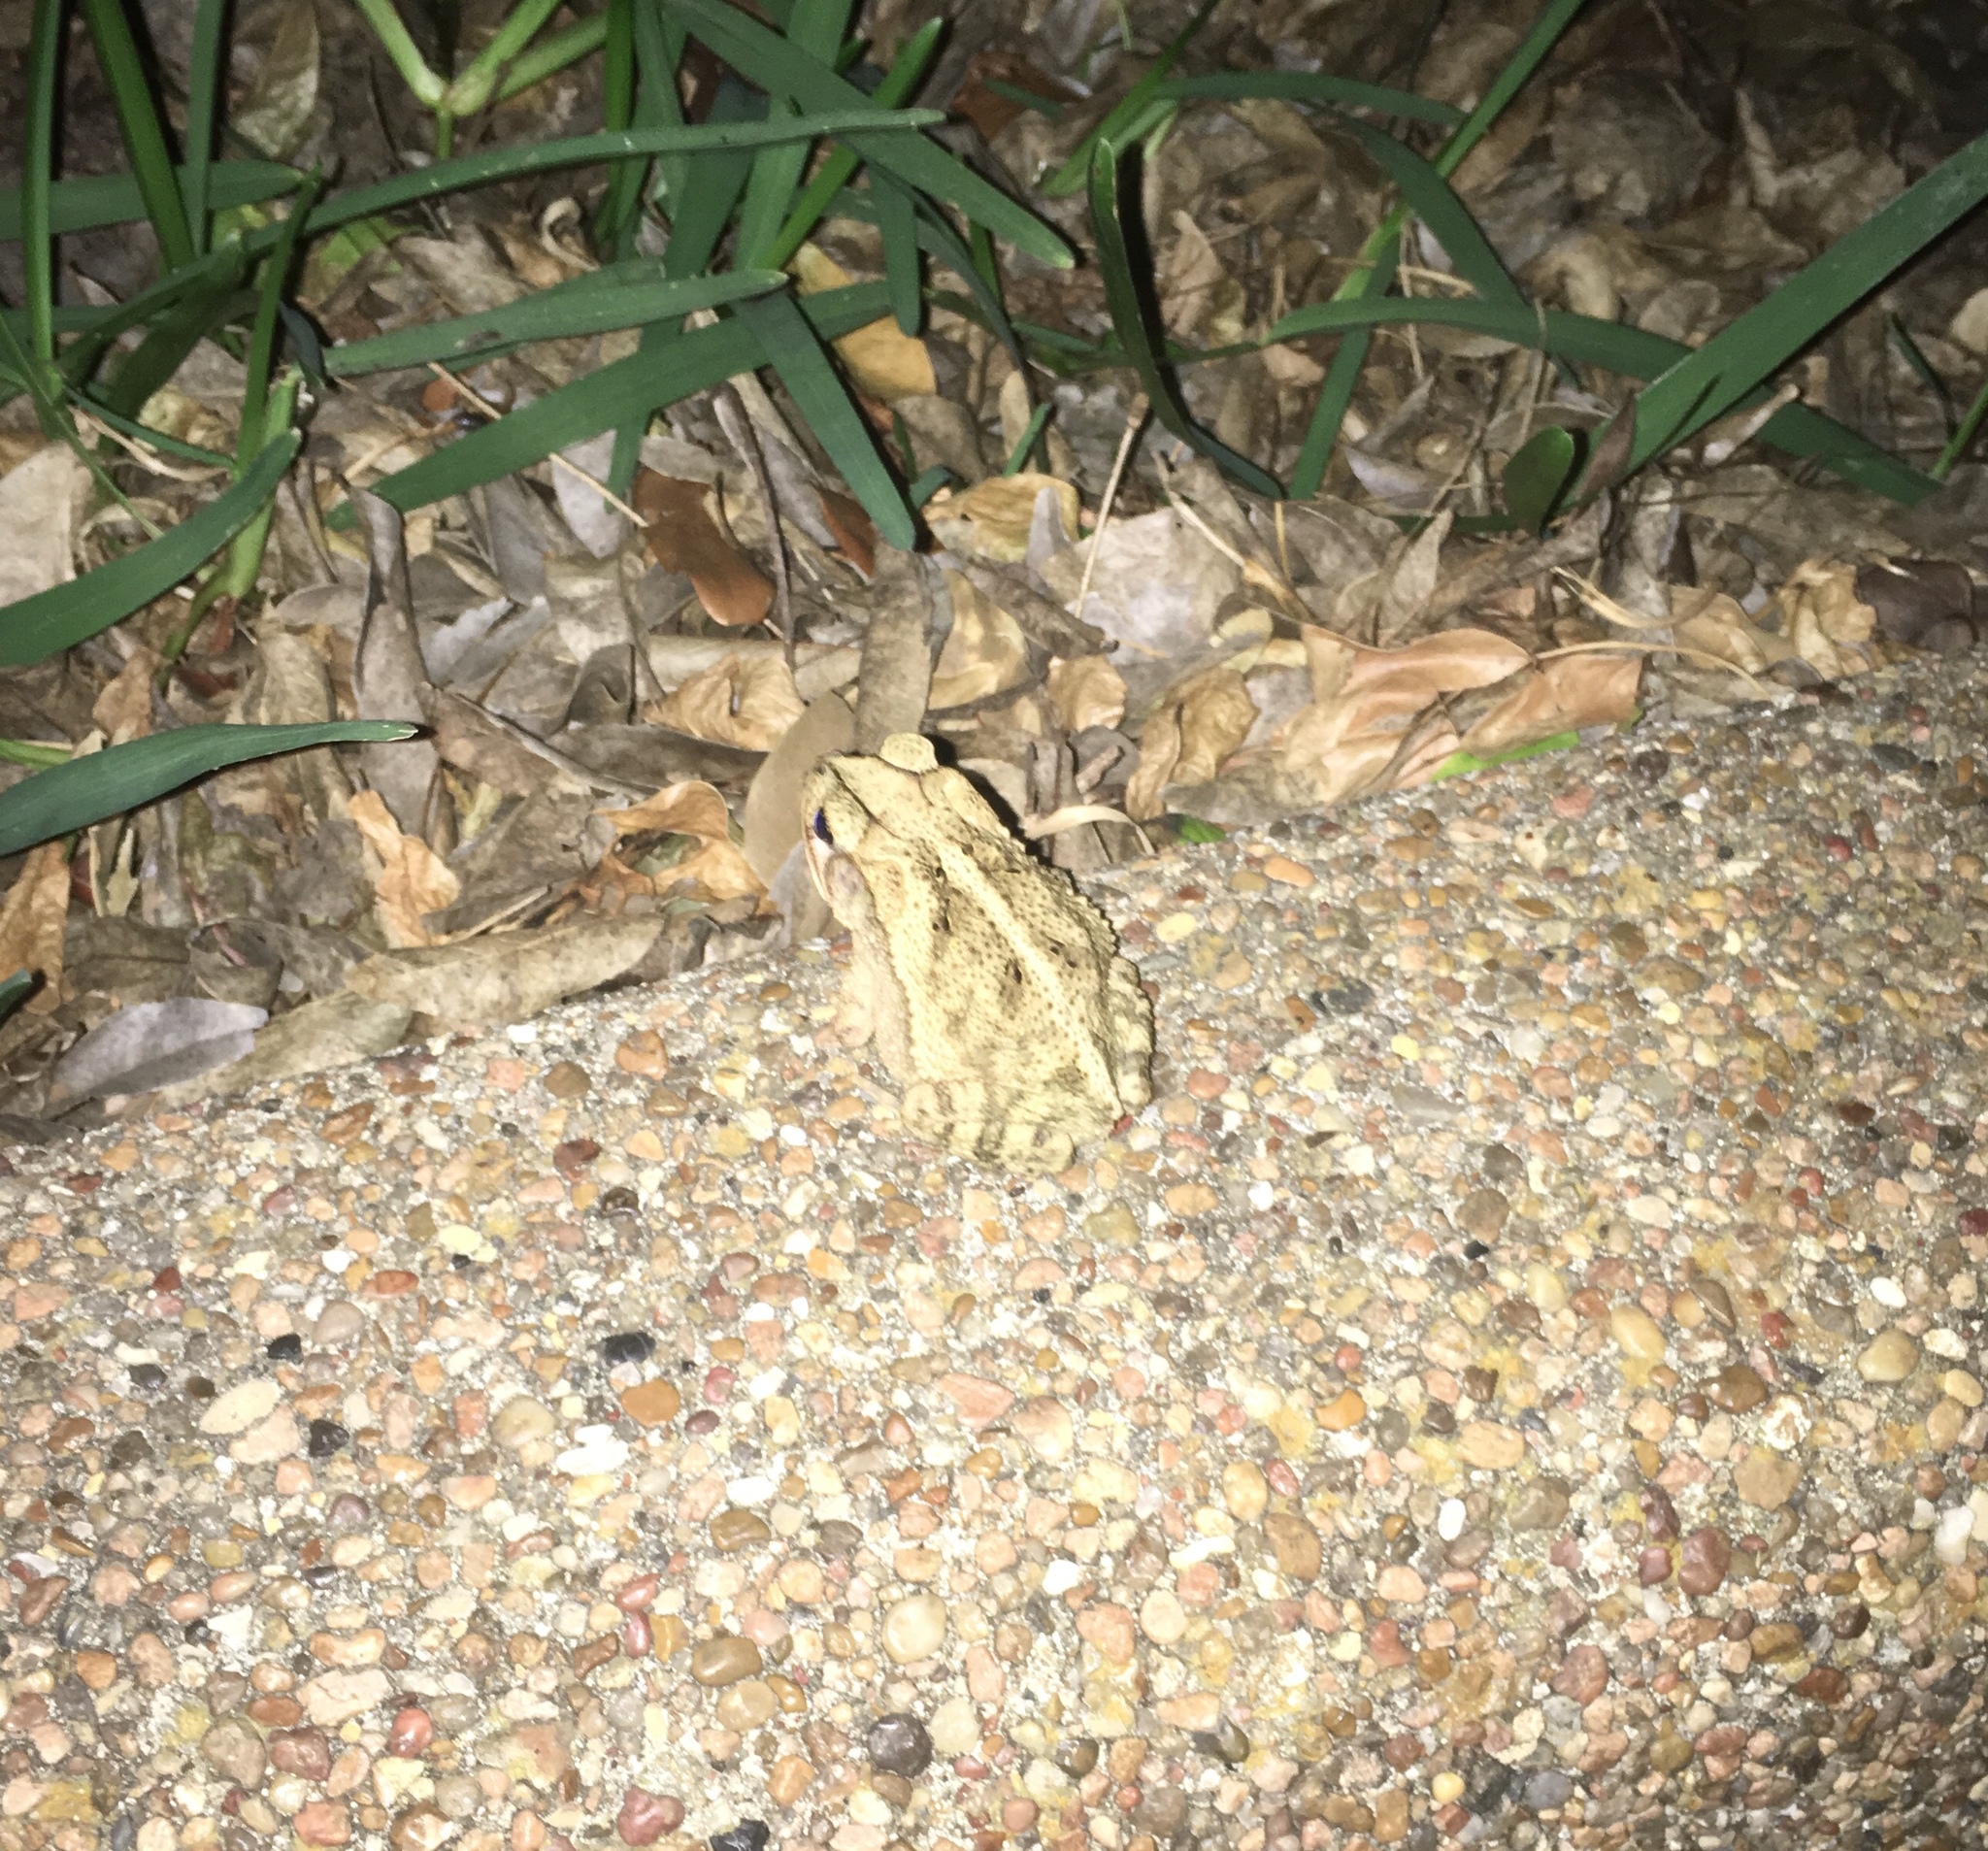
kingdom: Animalia
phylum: Chordata
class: Amphibia
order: Anura
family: Bufonidae
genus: Incilius
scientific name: Incilius nebulifer
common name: Gulf coast toad
